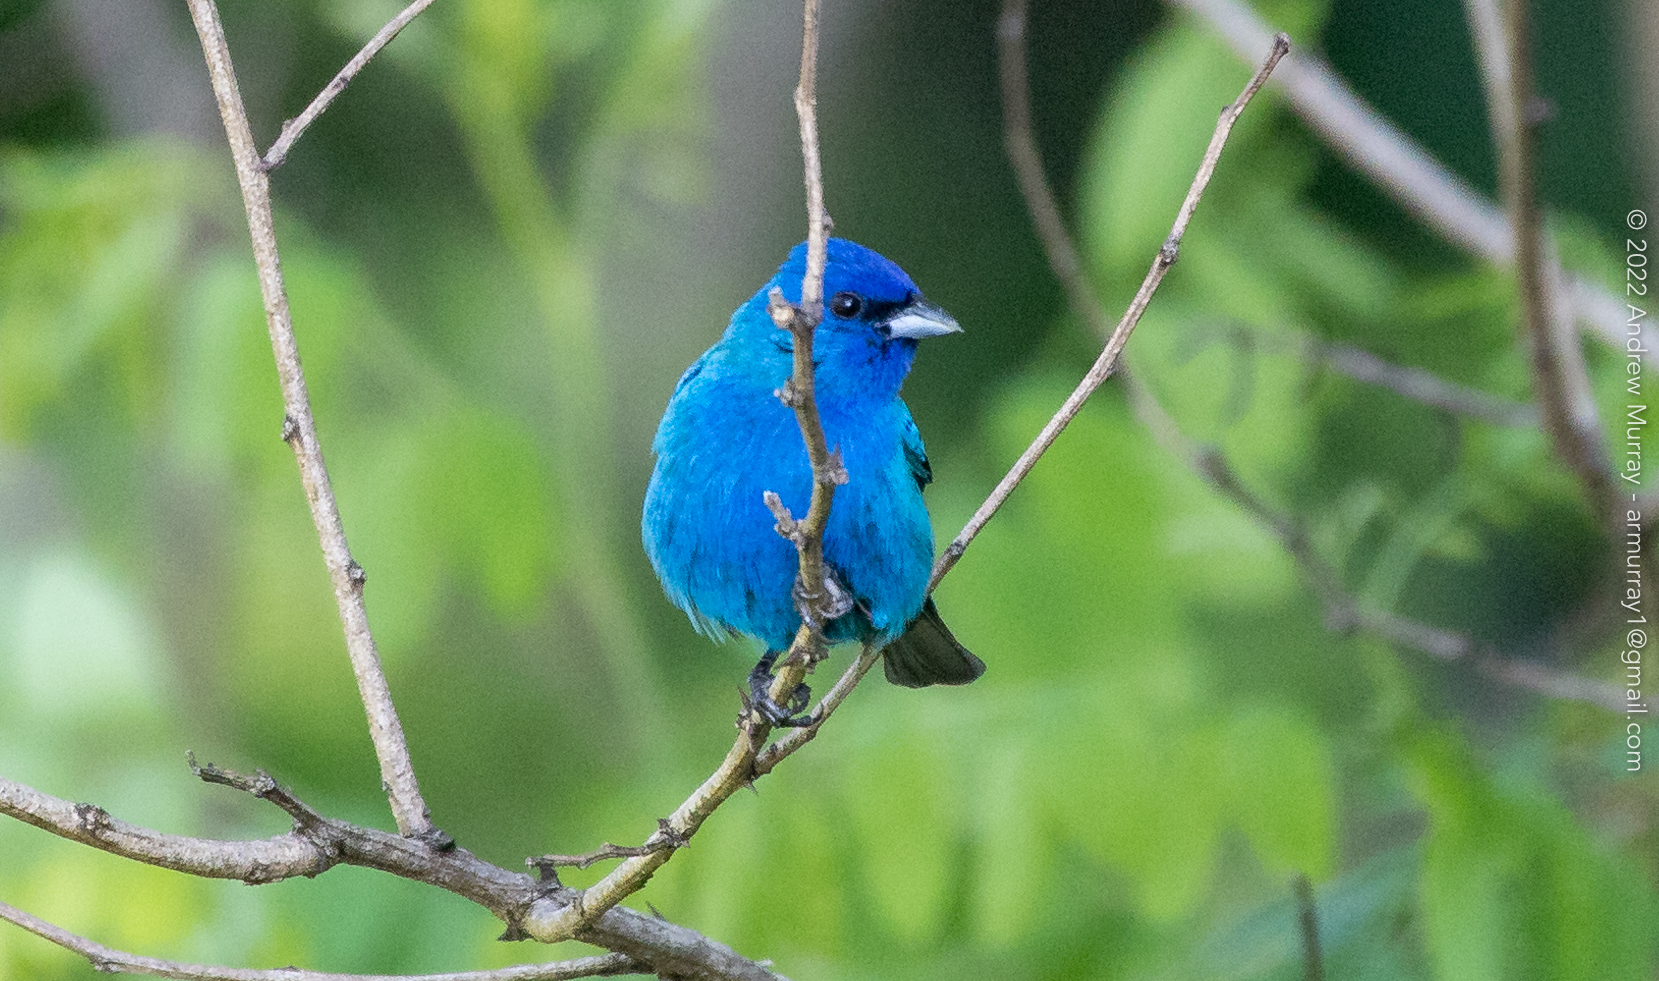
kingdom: Animalia
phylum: Chordata
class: Aves
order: Passeriformes
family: Cardinalidae
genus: Passerina
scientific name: Passerina cyanea
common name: Indigo bunting
